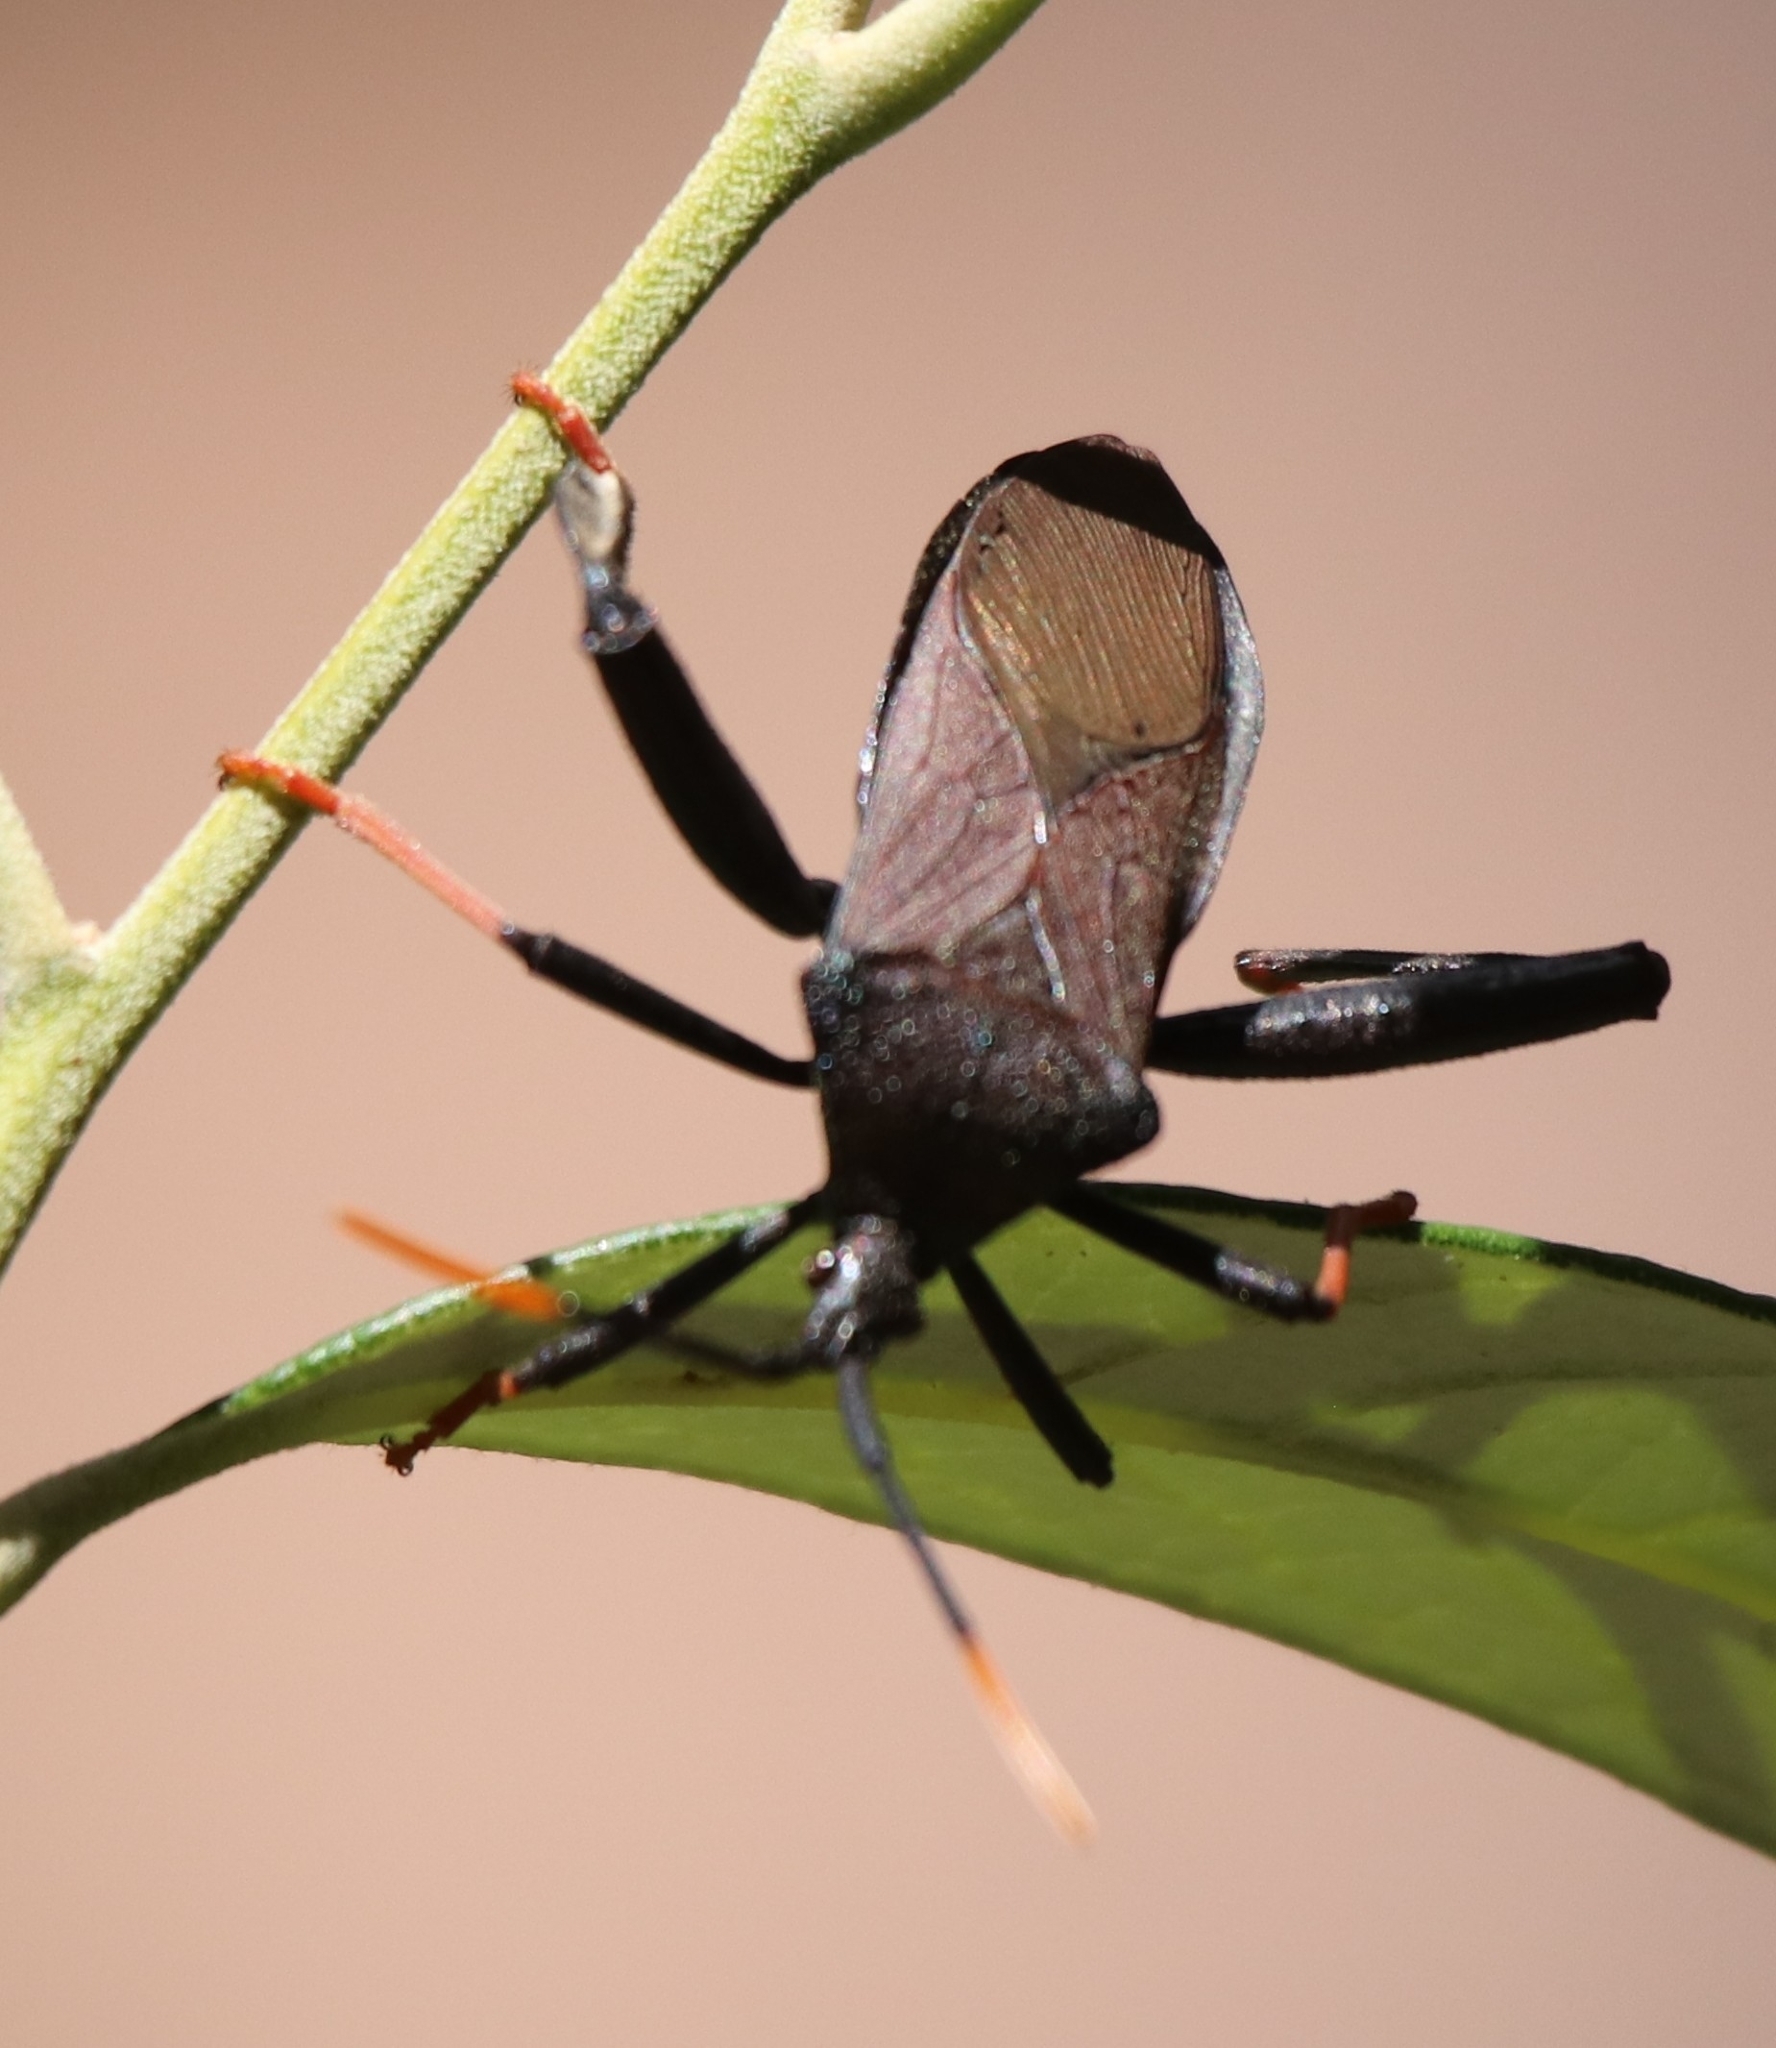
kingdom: Animalia
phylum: Arthropoda
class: Insecta
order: Hemiptera
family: Coreidae
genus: Acanthocephala
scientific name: Acanthocephala thomasi
